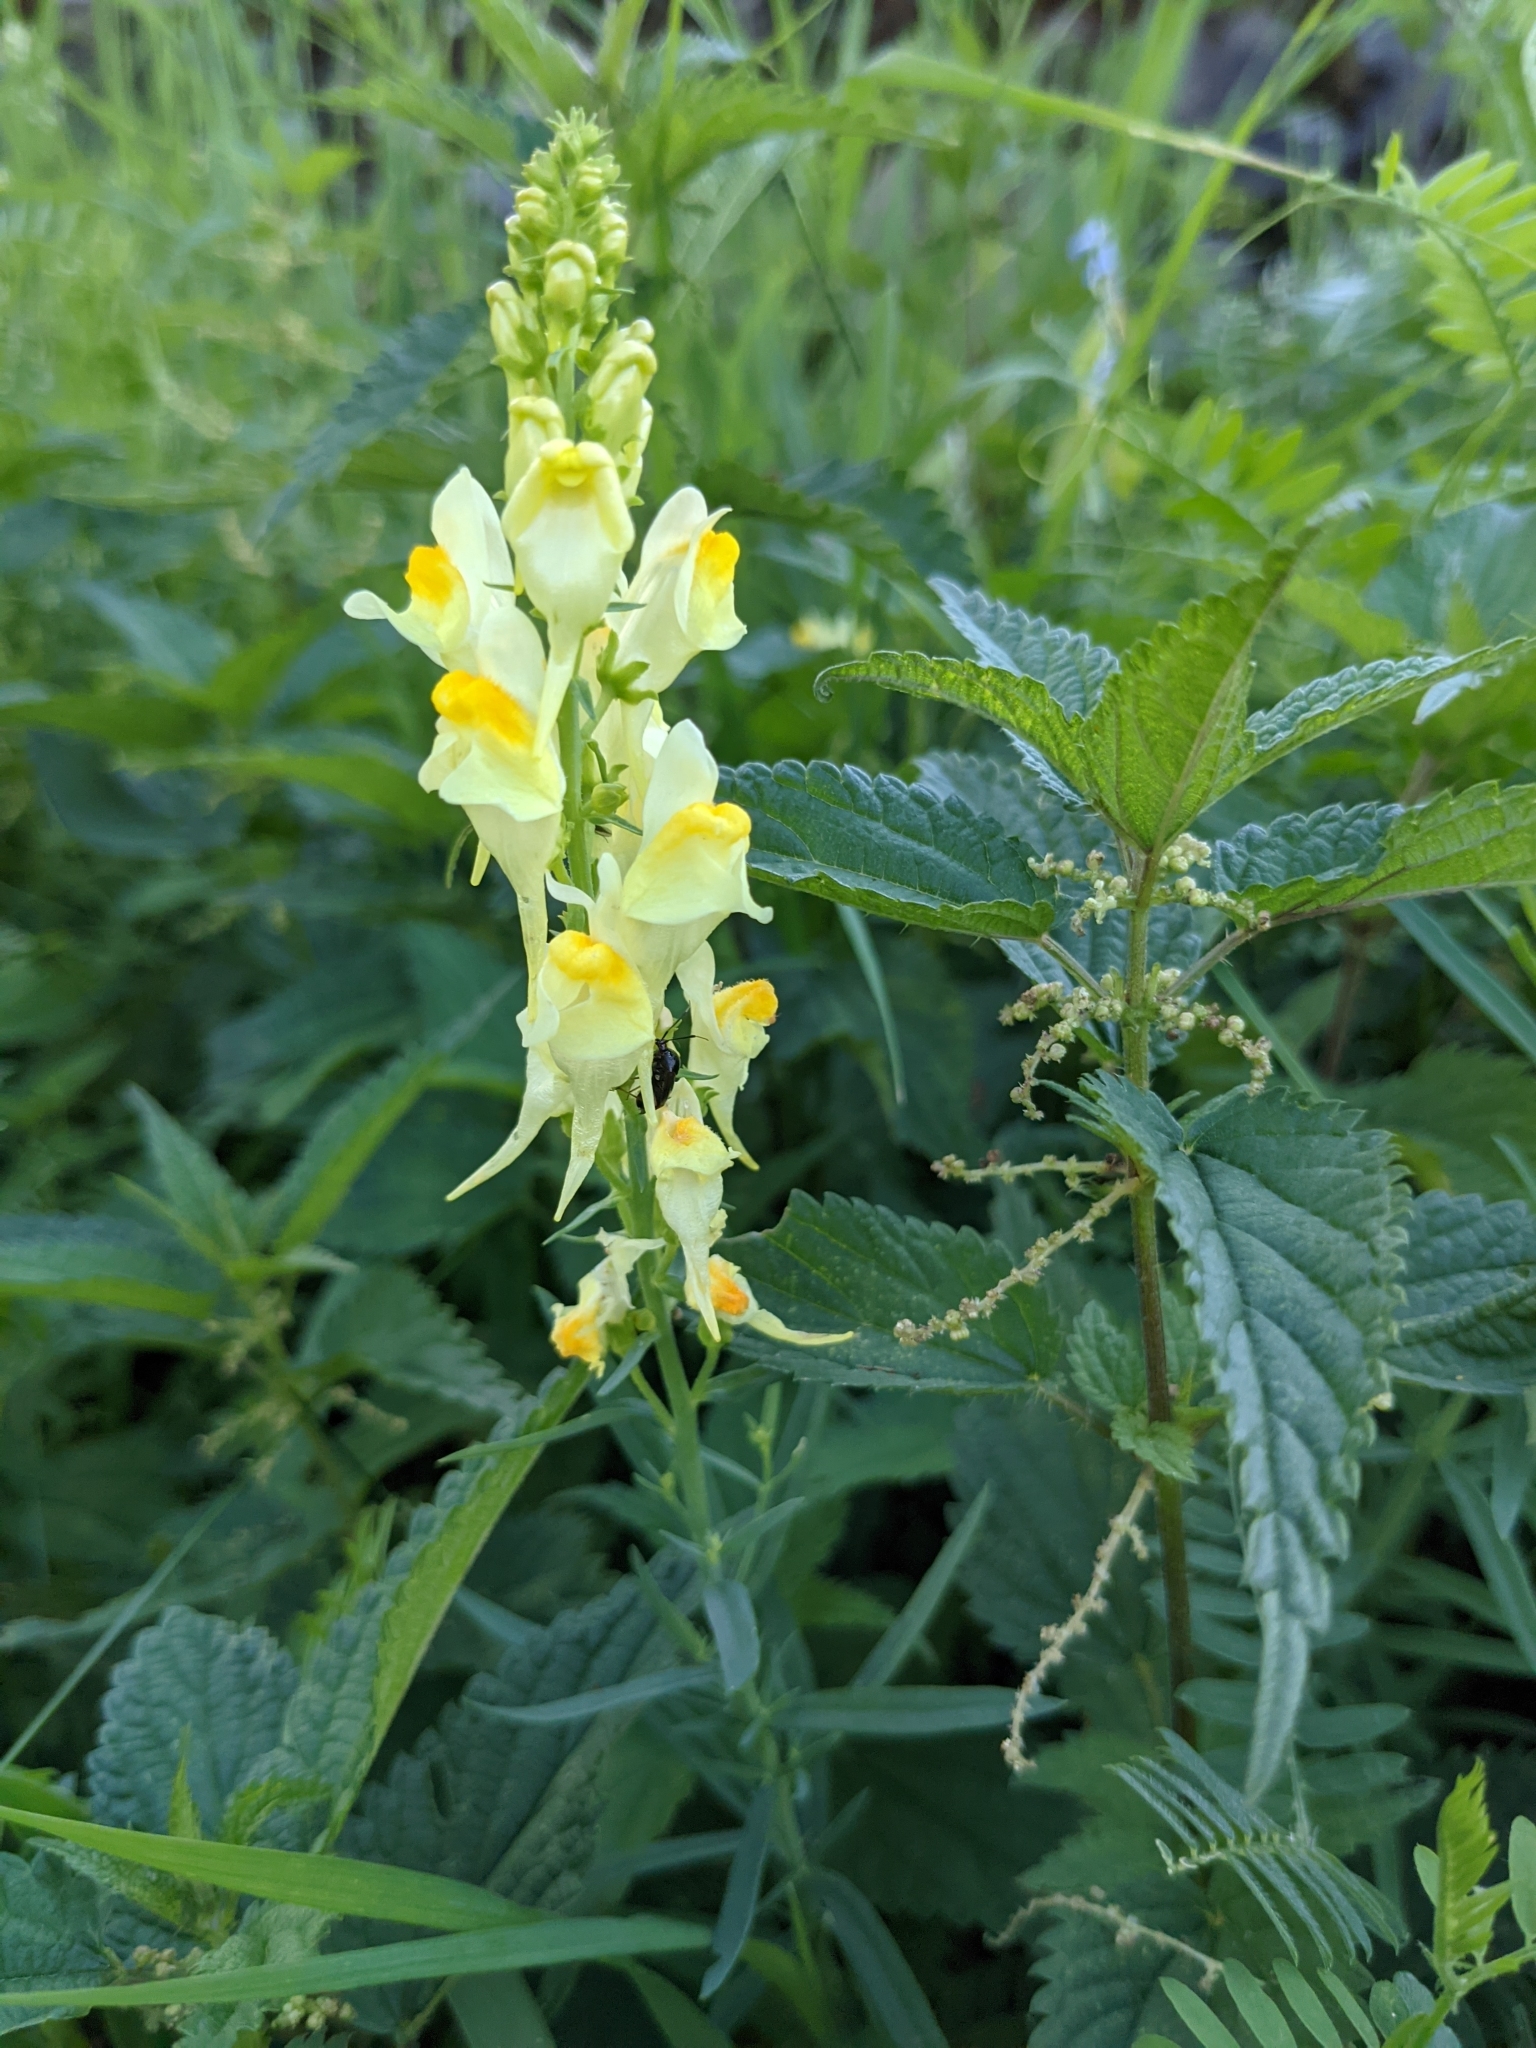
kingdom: Plantae
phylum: Tracheophyta
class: Magnoliopsida
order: Lamiales
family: Plantaginaceae
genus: Linaria
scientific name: Linaria vulgaris
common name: Butter and eggs
